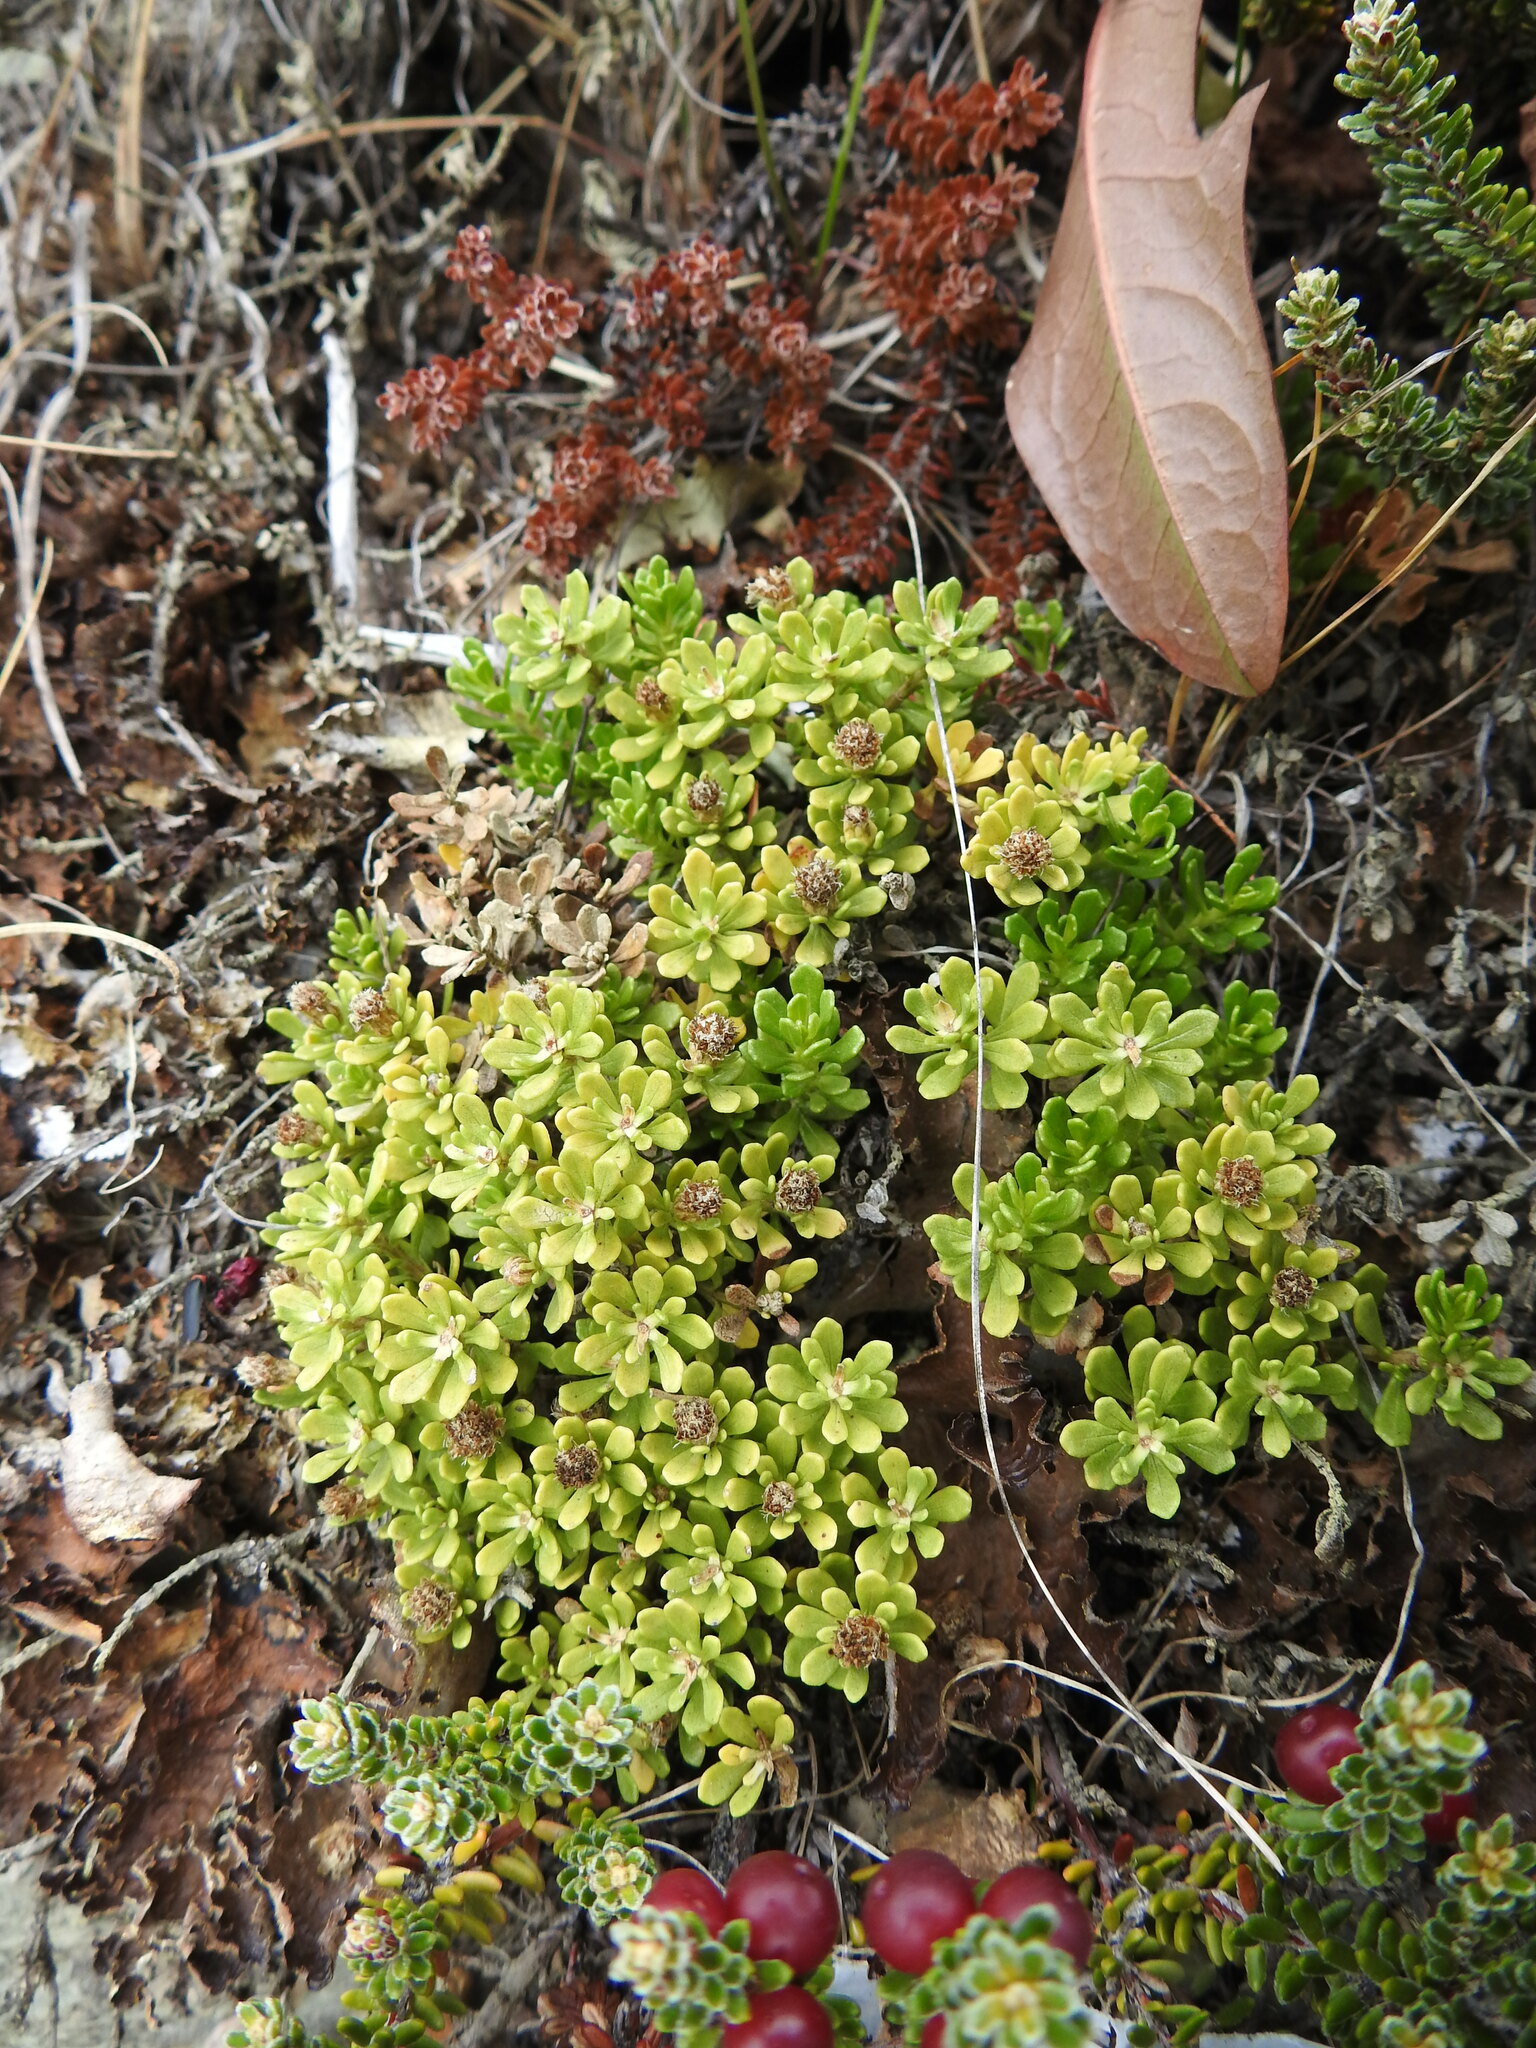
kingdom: Plantae
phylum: Tracheophyta
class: Magnoliopsida
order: Asterales
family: Asteraceae
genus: Baccharis
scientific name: Baccharis magellanica
